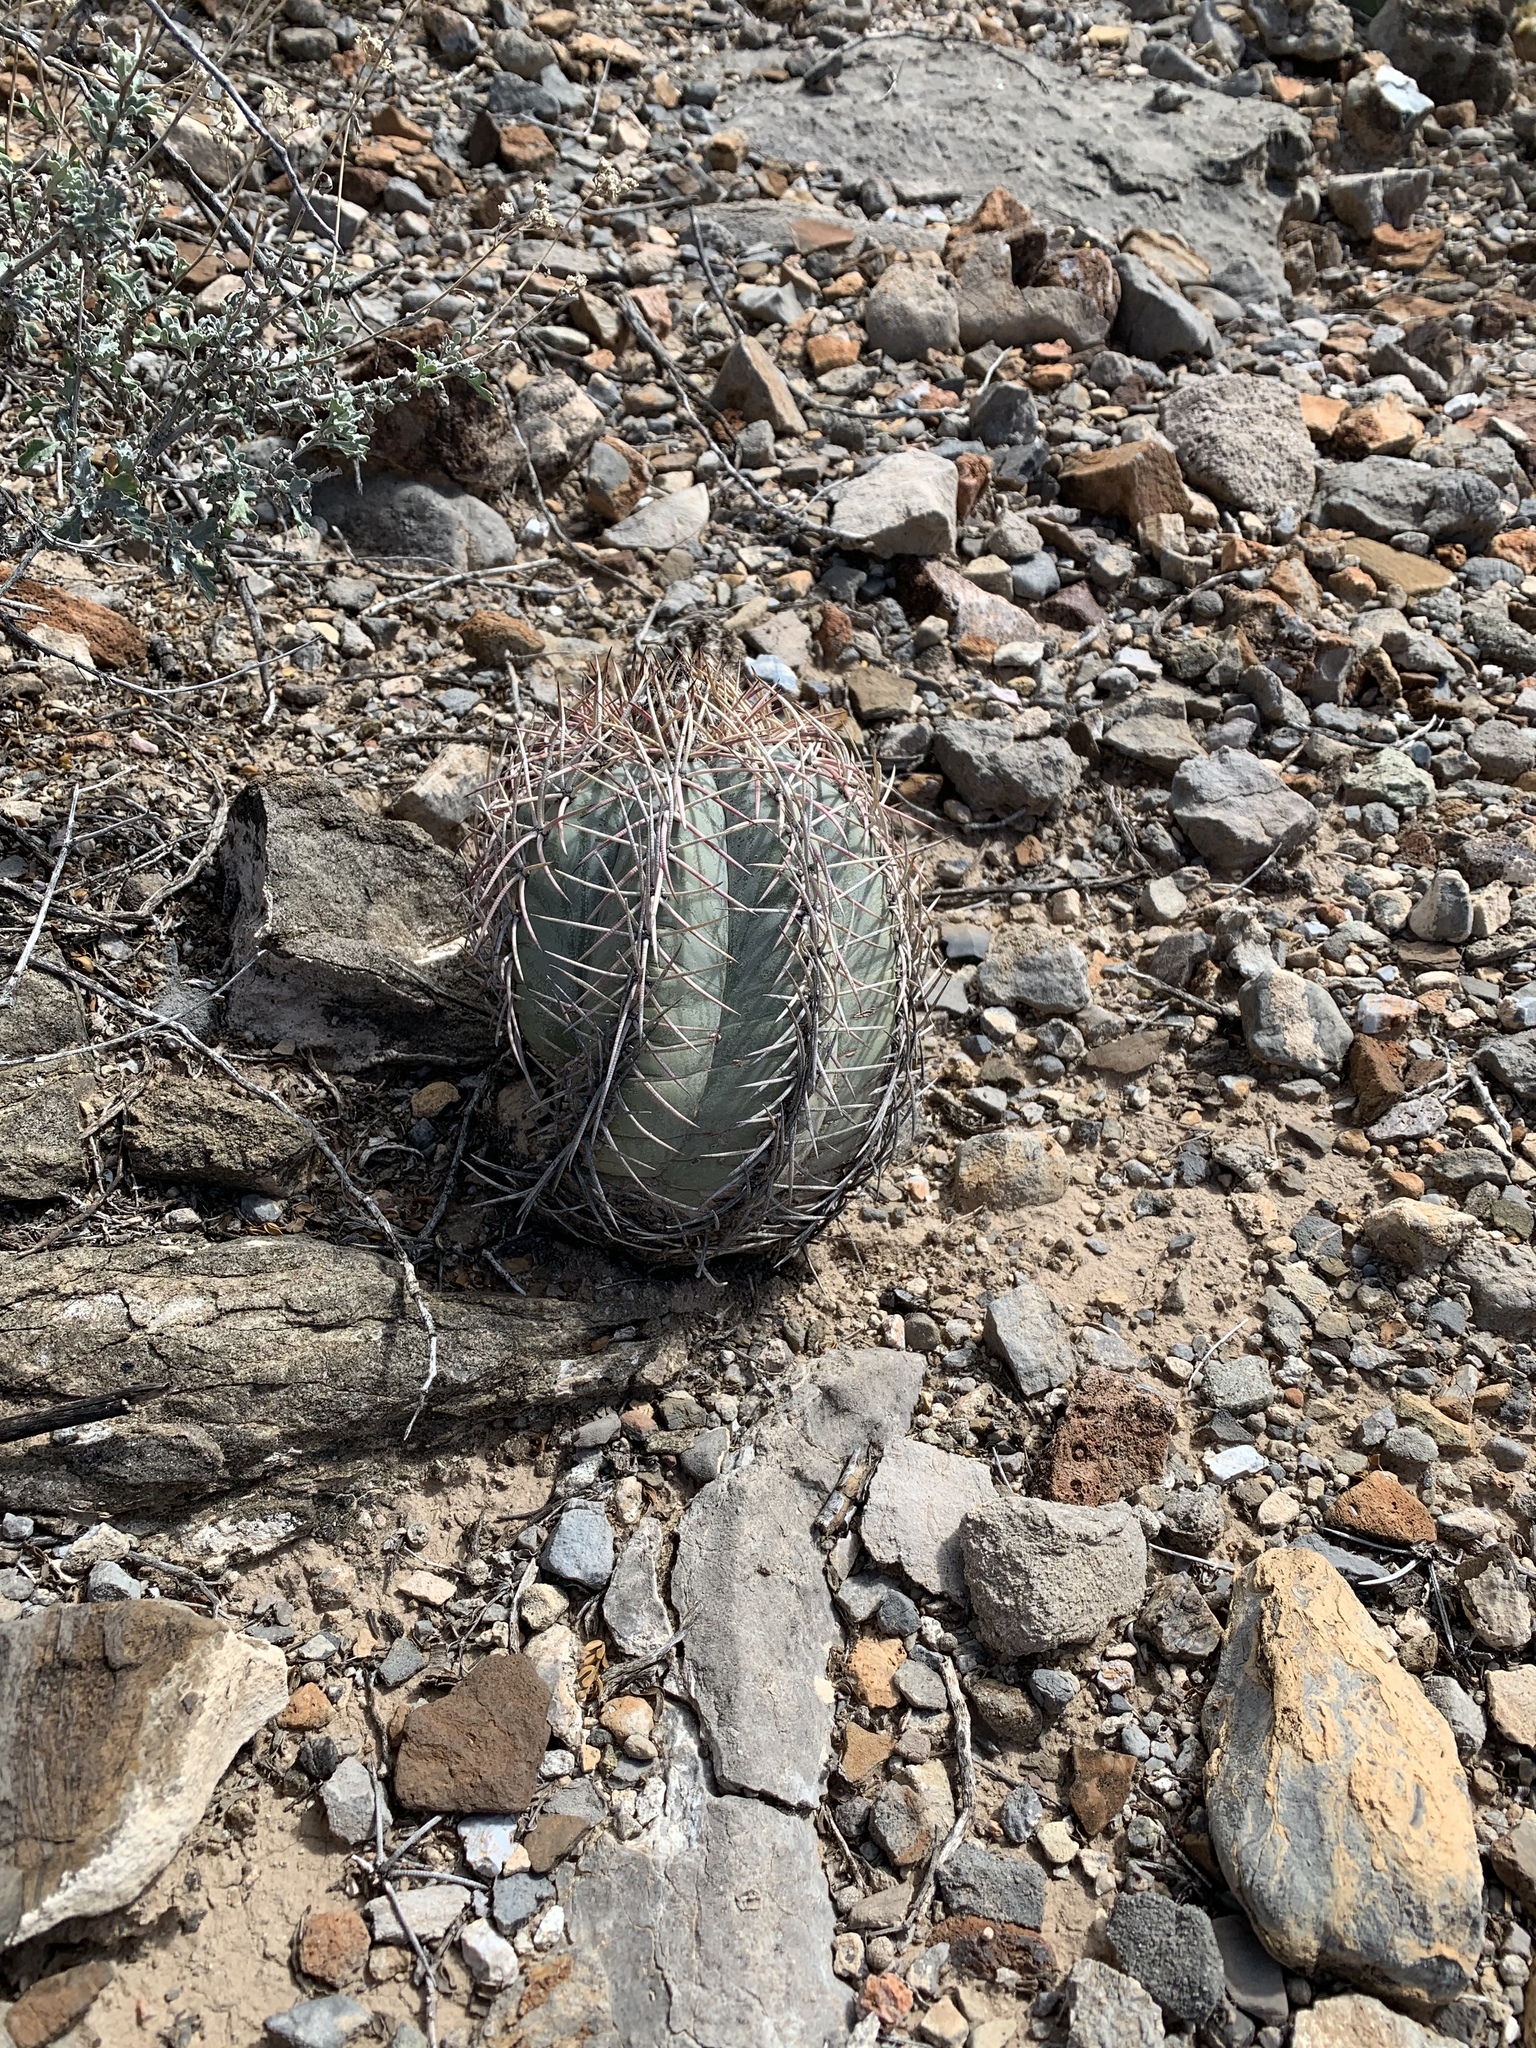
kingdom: Plantae
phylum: Tracheophyta
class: Magnoliopsida
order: Caryophyllales
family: Cactaceae
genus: Echinocactus
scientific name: Echinocactus horizonthalonius
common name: Devilshead
